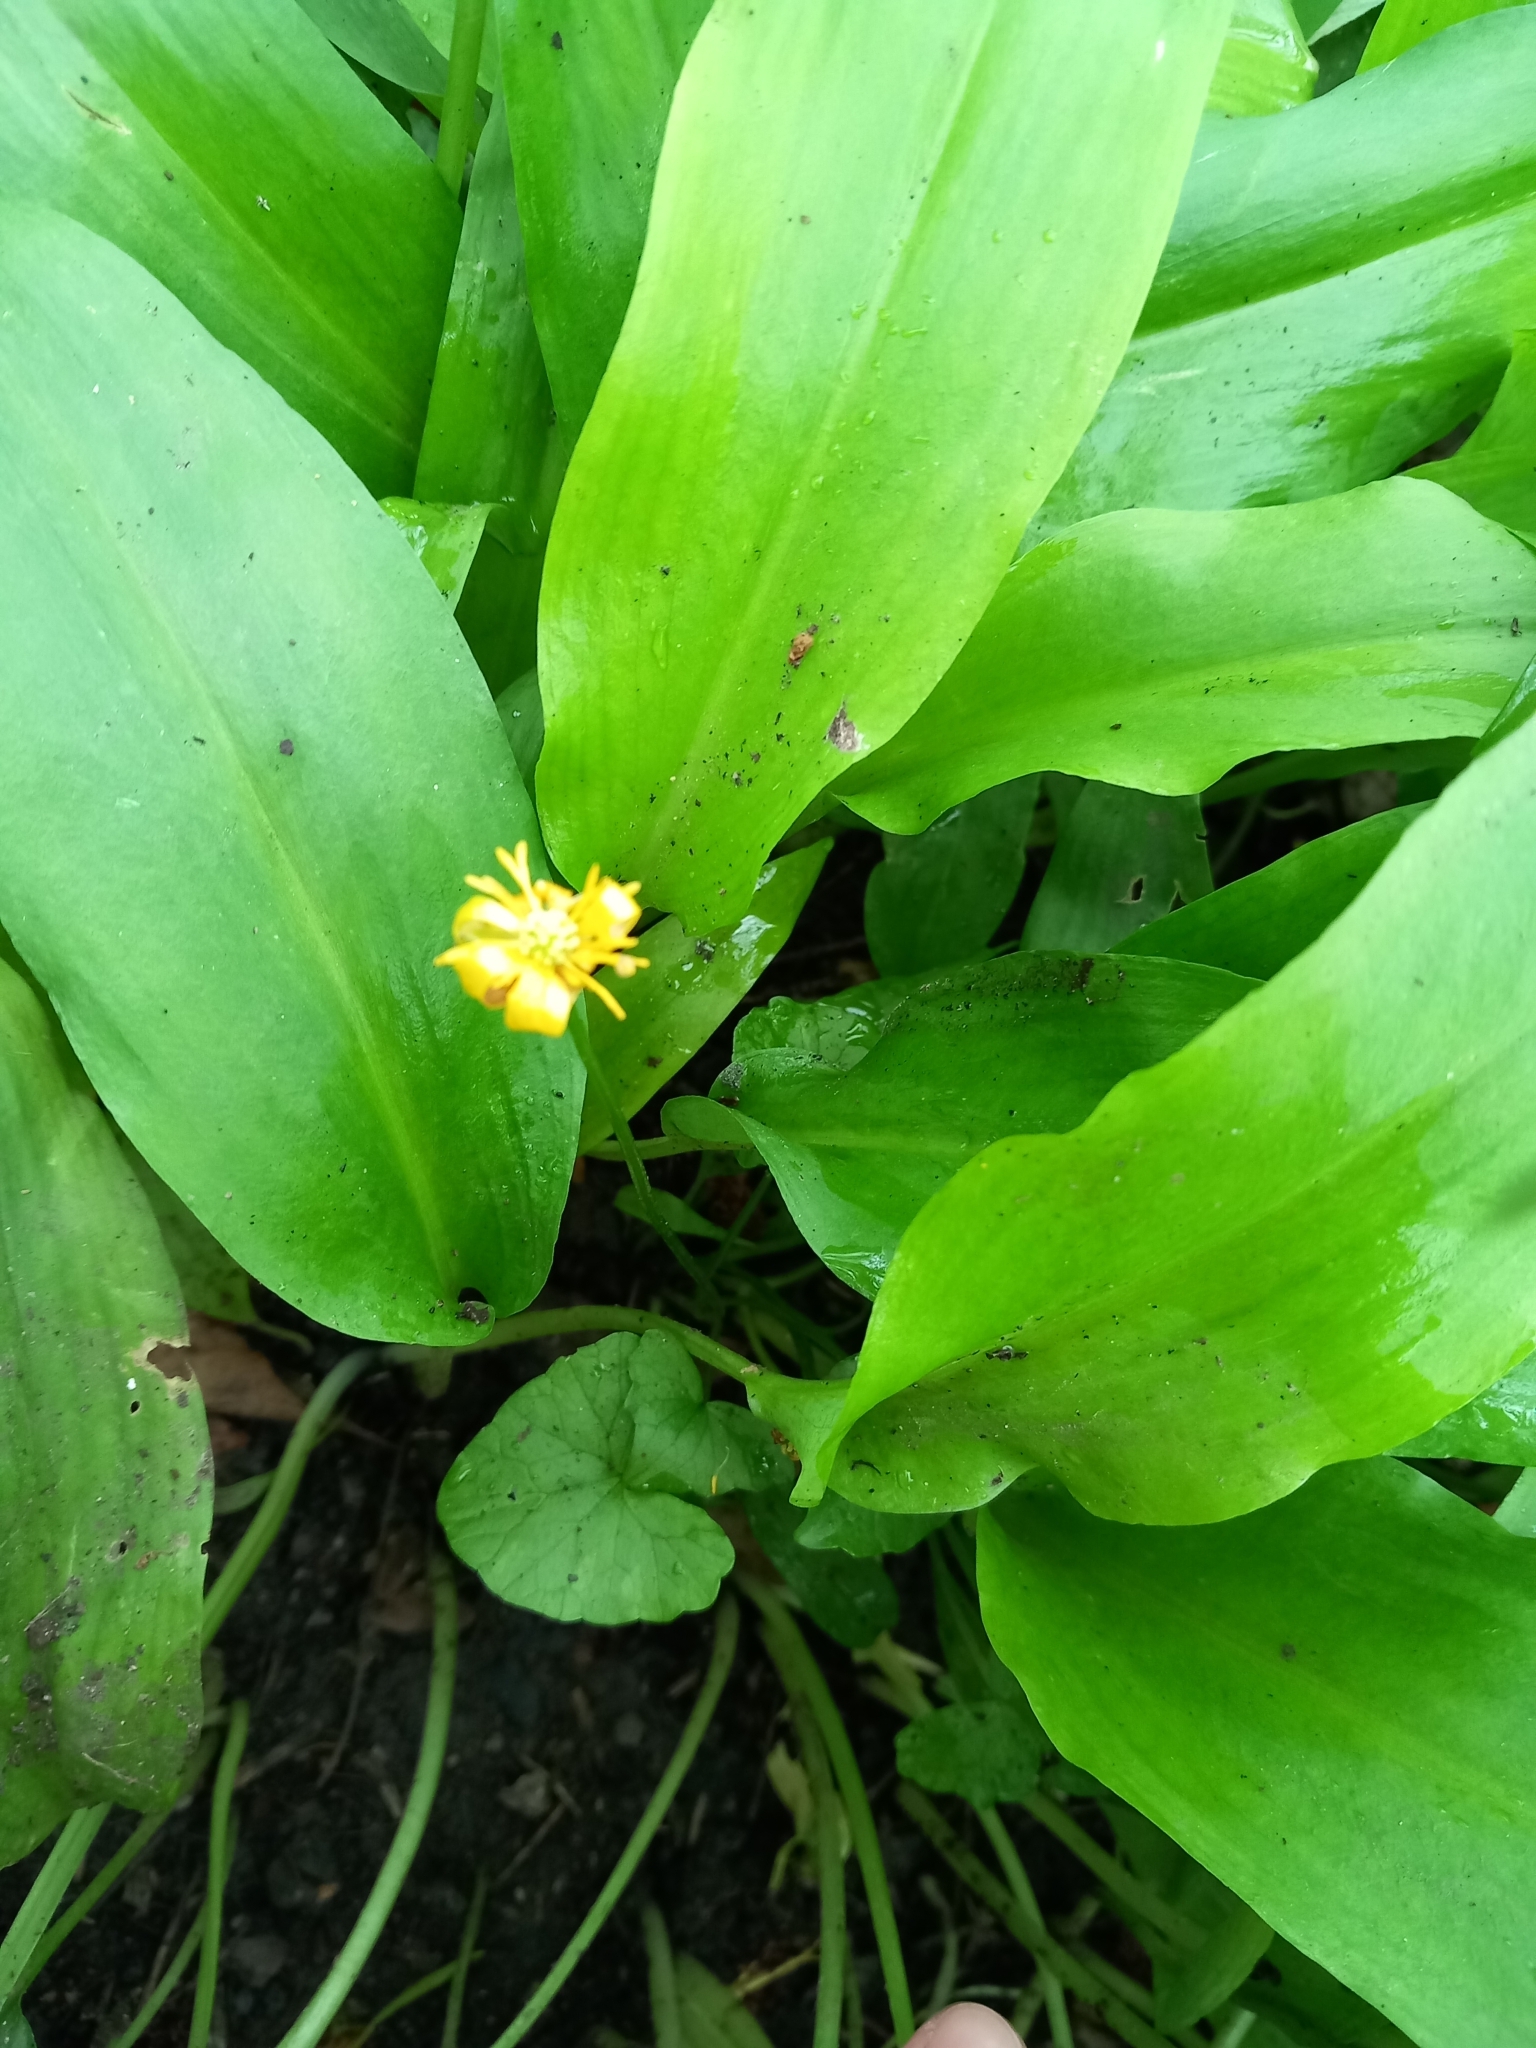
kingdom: Plantae
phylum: Tracheophyta
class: Magnoliopsida
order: Ranunculales
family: Ranunculaceae
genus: Ficaria
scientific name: Ficaria verna
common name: Lesser celandine
